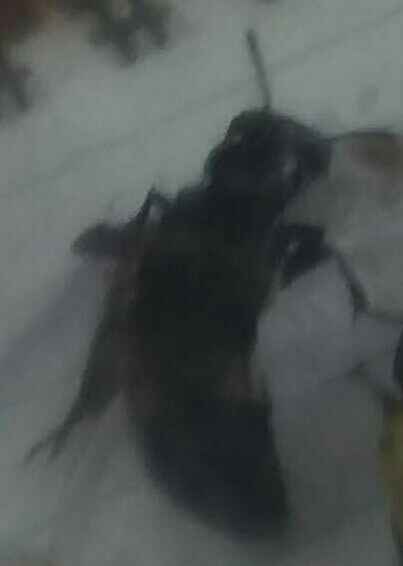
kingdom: Animalia
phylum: Arthropoda
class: Insecta
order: Coleoptera
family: Staphylinidae
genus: Creophilus
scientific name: Creophilus maxillosus
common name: Hairy rove beetle
